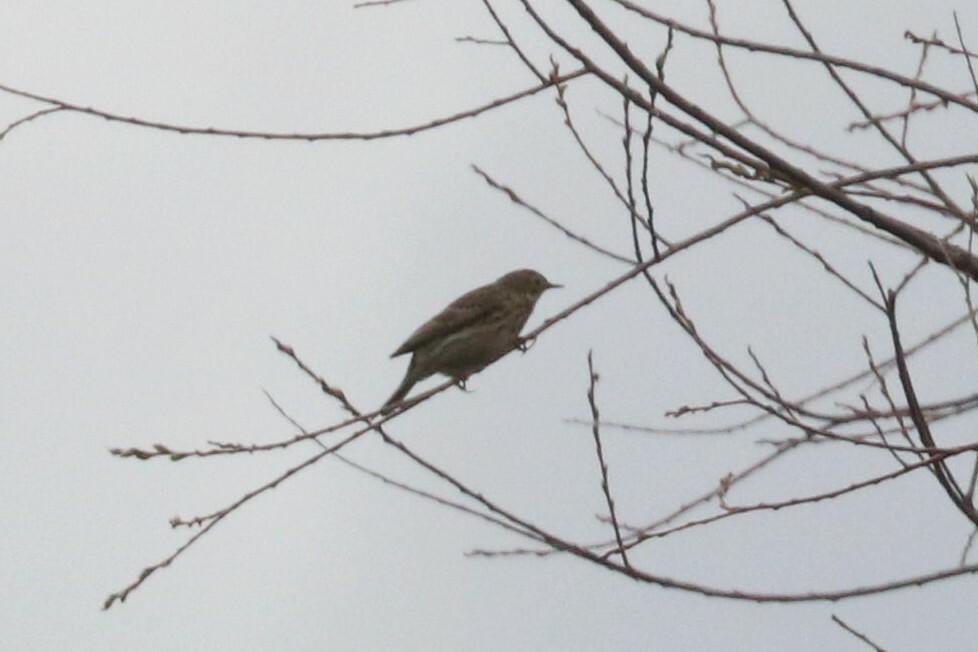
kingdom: Animalia
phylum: Chordata
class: Aves
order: Passeriformes
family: Motacillidae
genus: Anthus
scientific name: Anthus pratensis
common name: Meadow pipit
